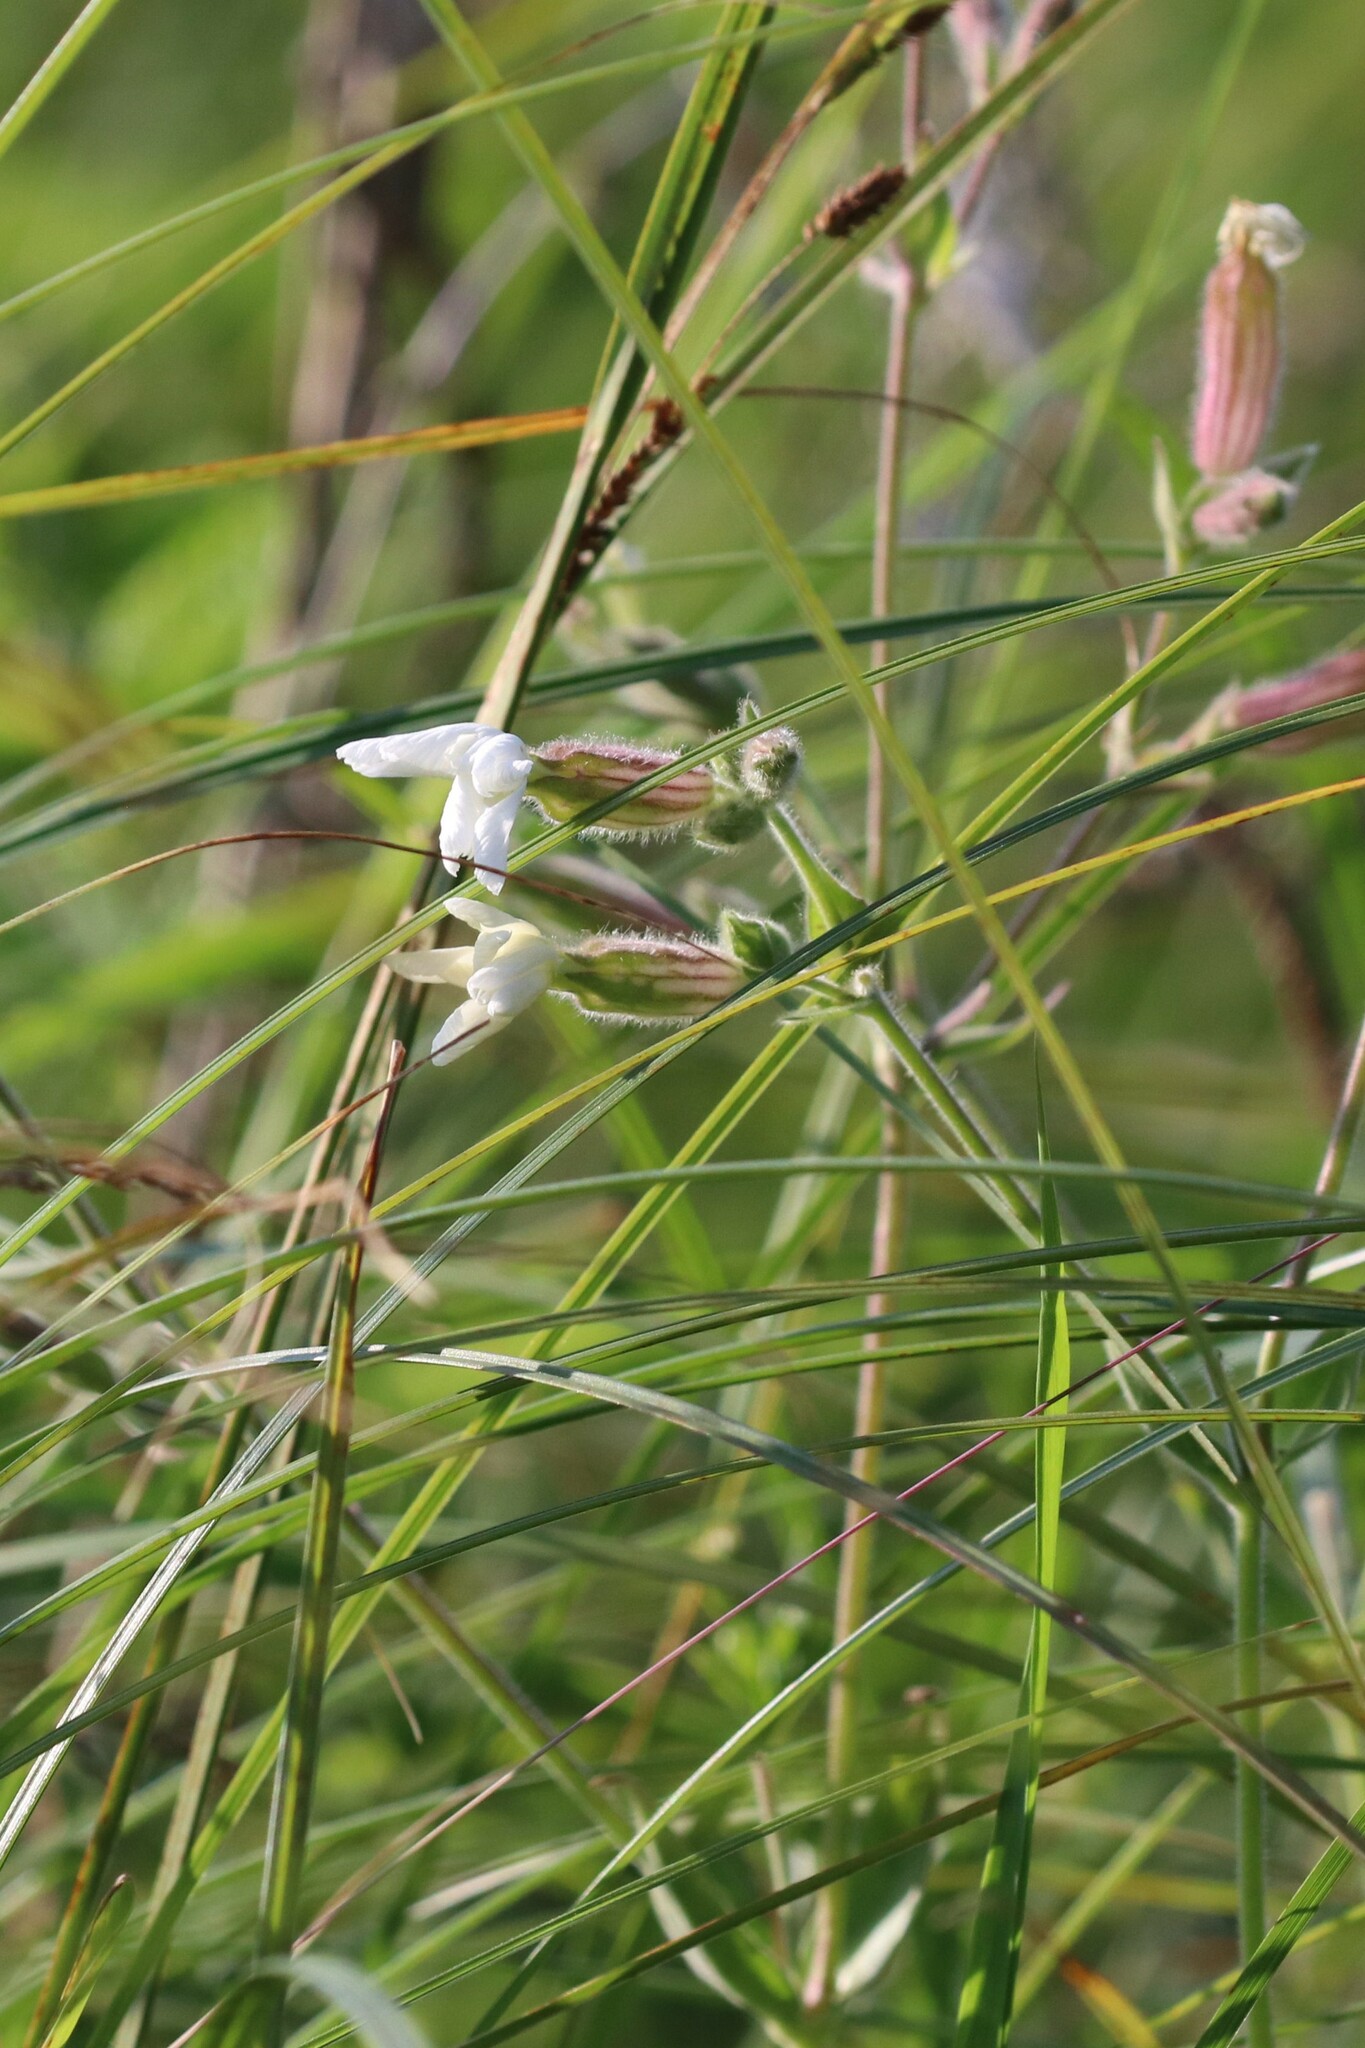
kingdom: Plantae
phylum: Tracheophyta
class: Magnoliopsida
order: Caryophyllales
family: Caryophyllaceae
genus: Silene
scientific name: Silene latifolia
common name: White campion
